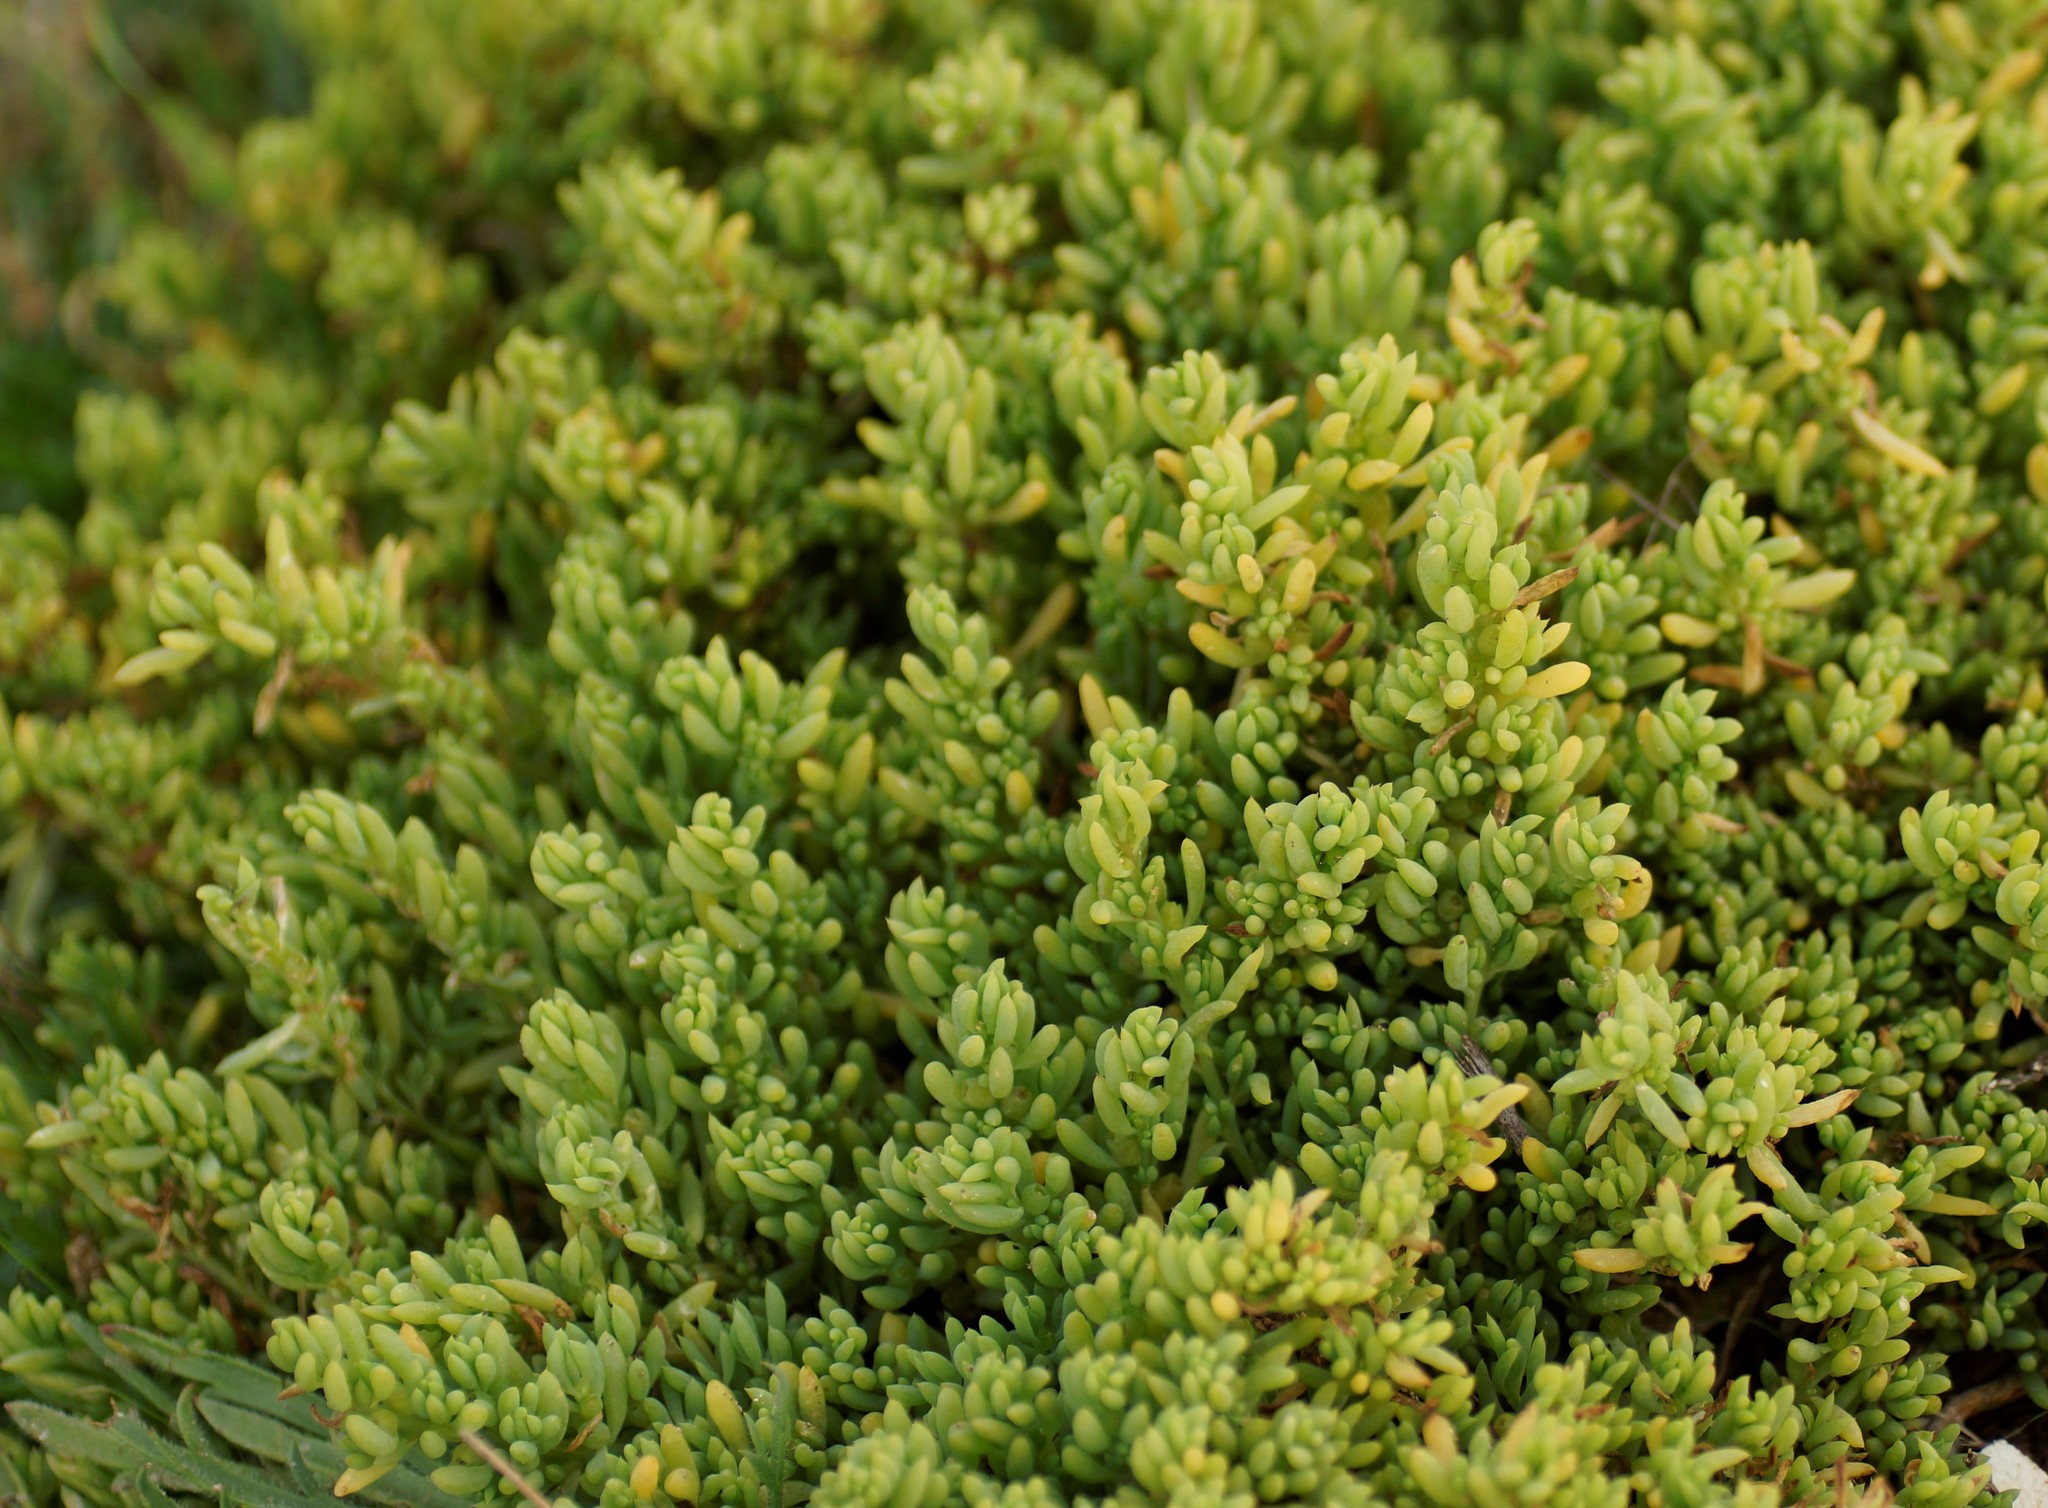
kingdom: Plantae
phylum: Tracheophyta
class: Magnoliopsida
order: Caryophyllales
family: Amaranthaceae
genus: Threlkeldia
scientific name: Threlkeldia diffusa
